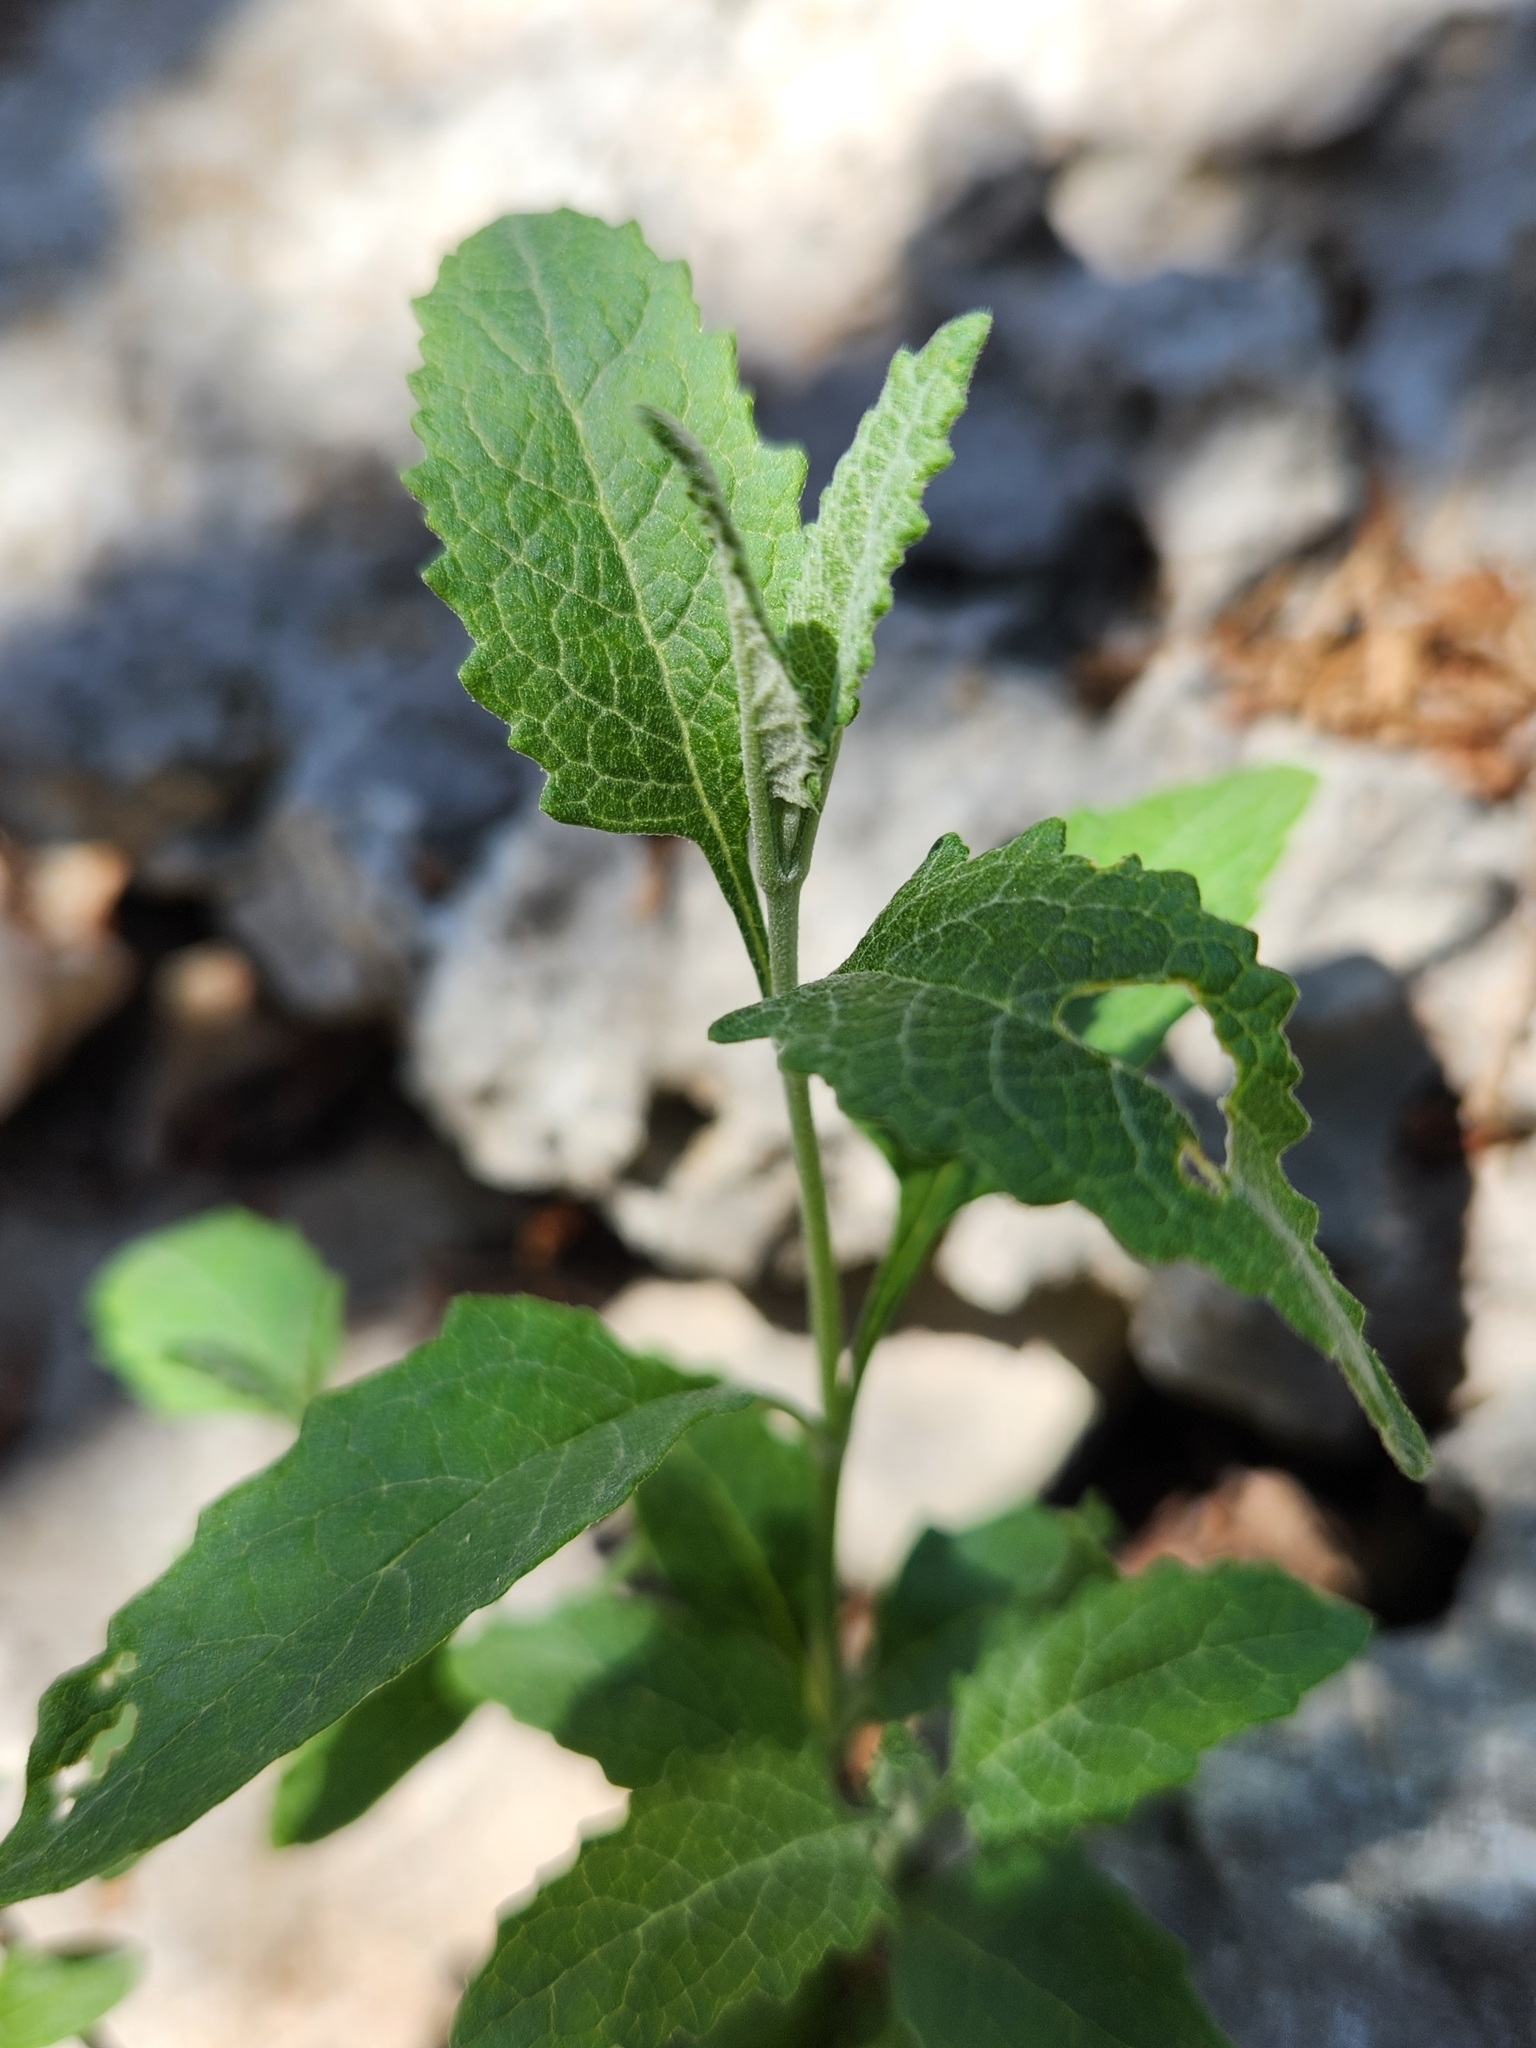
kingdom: Plantae
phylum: Tracheophyta
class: Magnoliopsida
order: Lamiales
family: Scrophulariaceae
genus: Buddleja
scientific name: Buddleja racemosa
